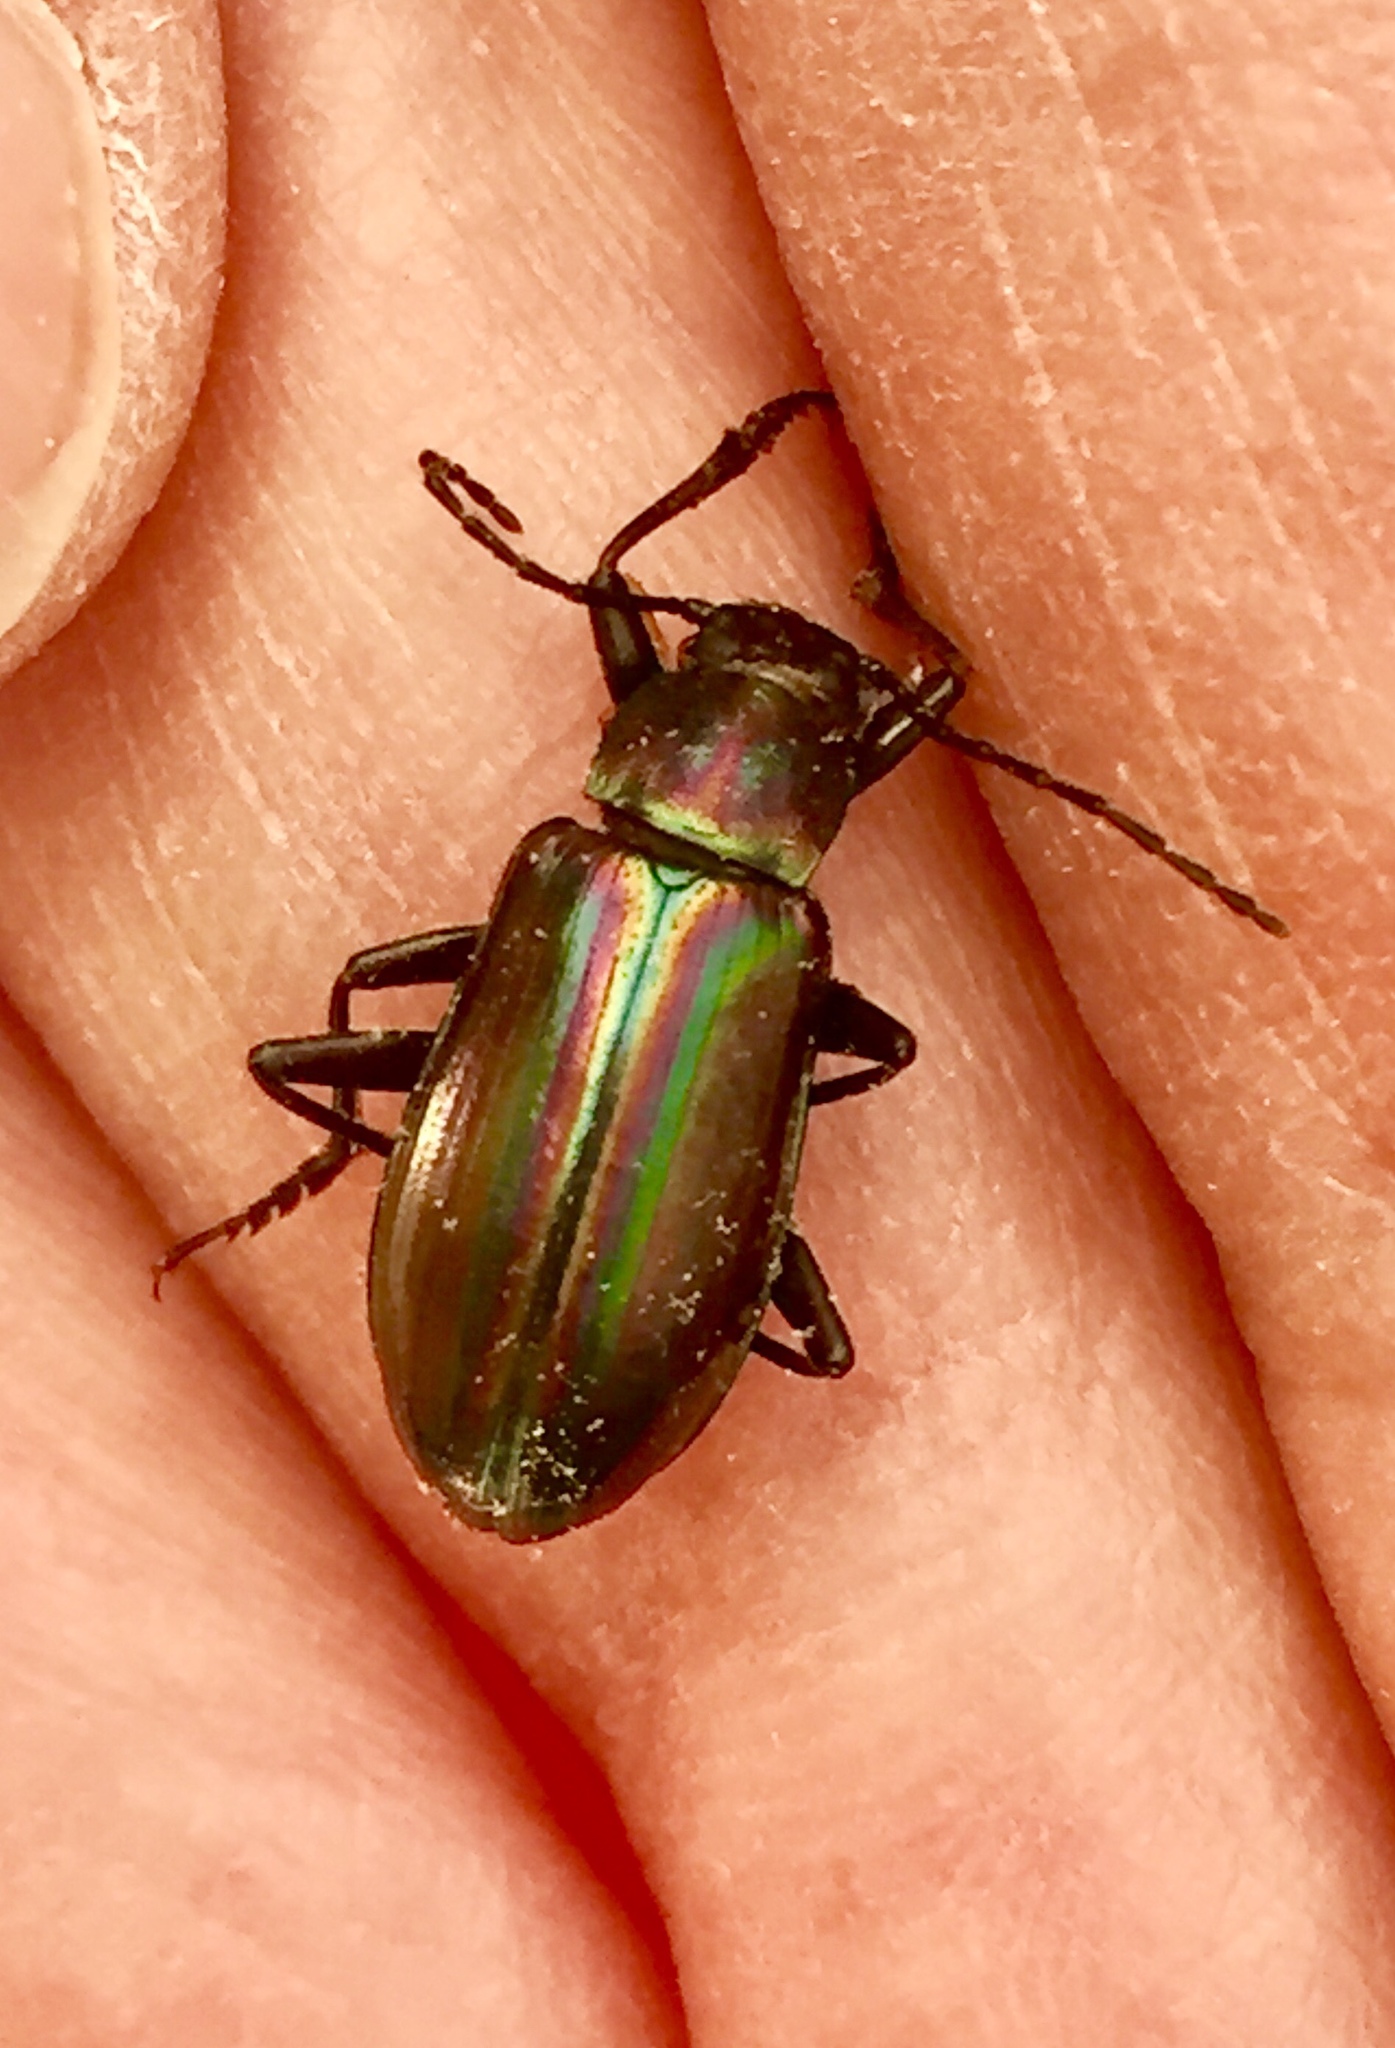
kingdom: Animalia
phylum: Arthropoda
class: Insecta
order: Coleoptera
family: Tenebrionidae
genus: Tarpela
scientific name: Tarpela micans
